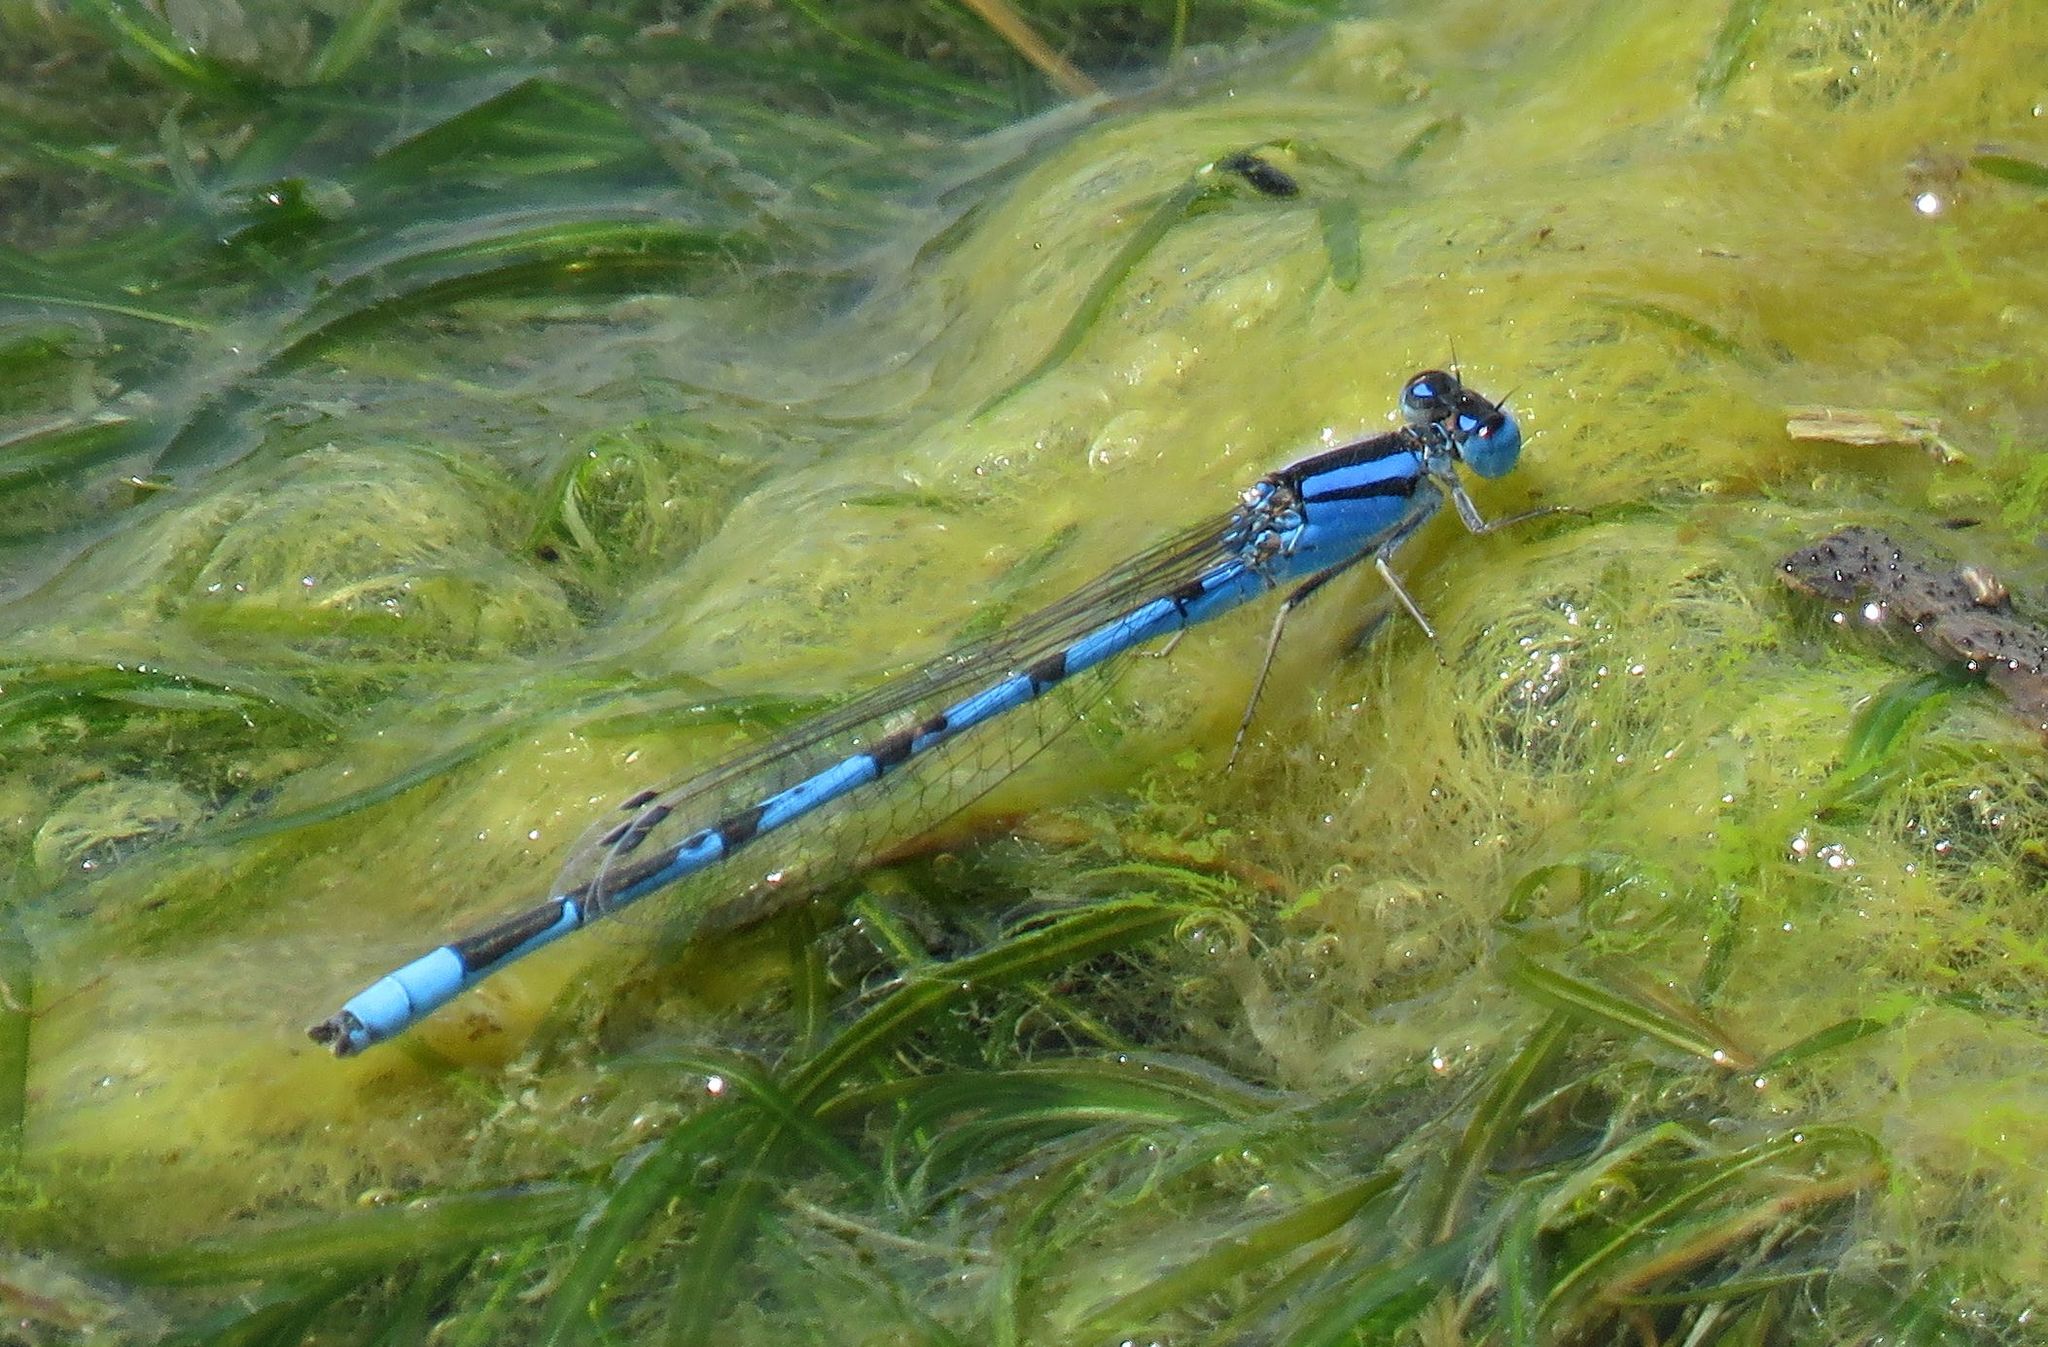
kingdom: Animalia
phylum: Arthropoda
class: Insecta
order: Odonata
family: Coenagrionidae
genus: Enallagma
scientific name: Enallagma civile
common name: Damselfly
